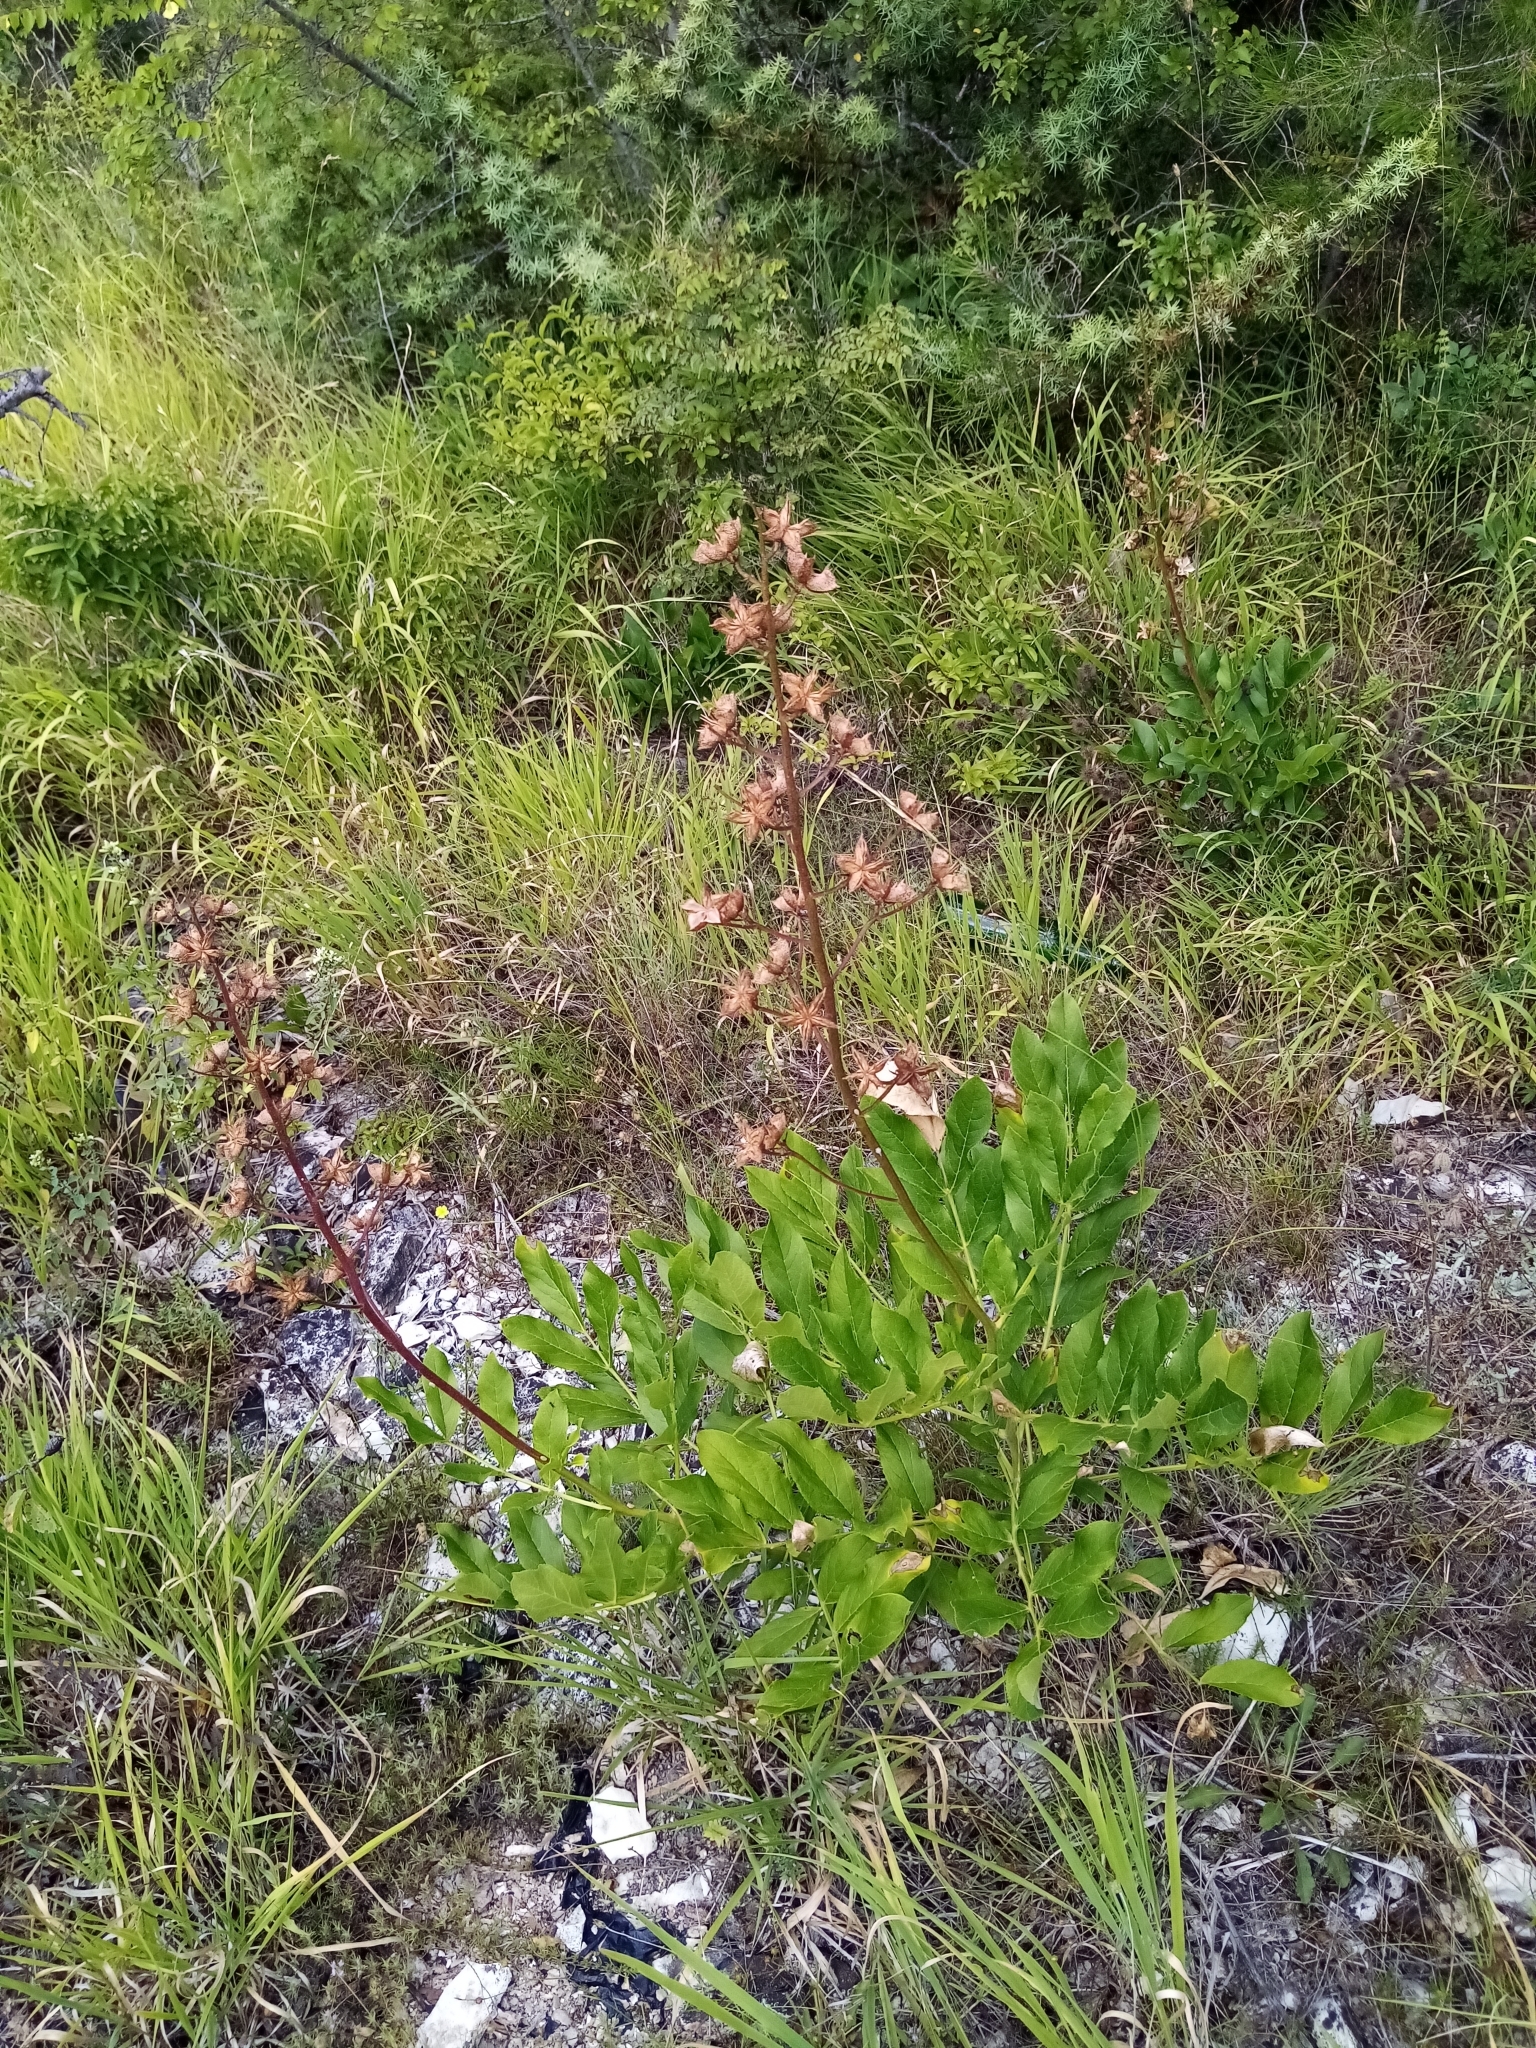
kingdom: Plantae
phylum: Tracheophyta
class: Magnoliopsida
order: Sapindales
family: Rutaceae
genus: Dictamnus
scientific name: Dictamnus albus
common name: Gasplant
